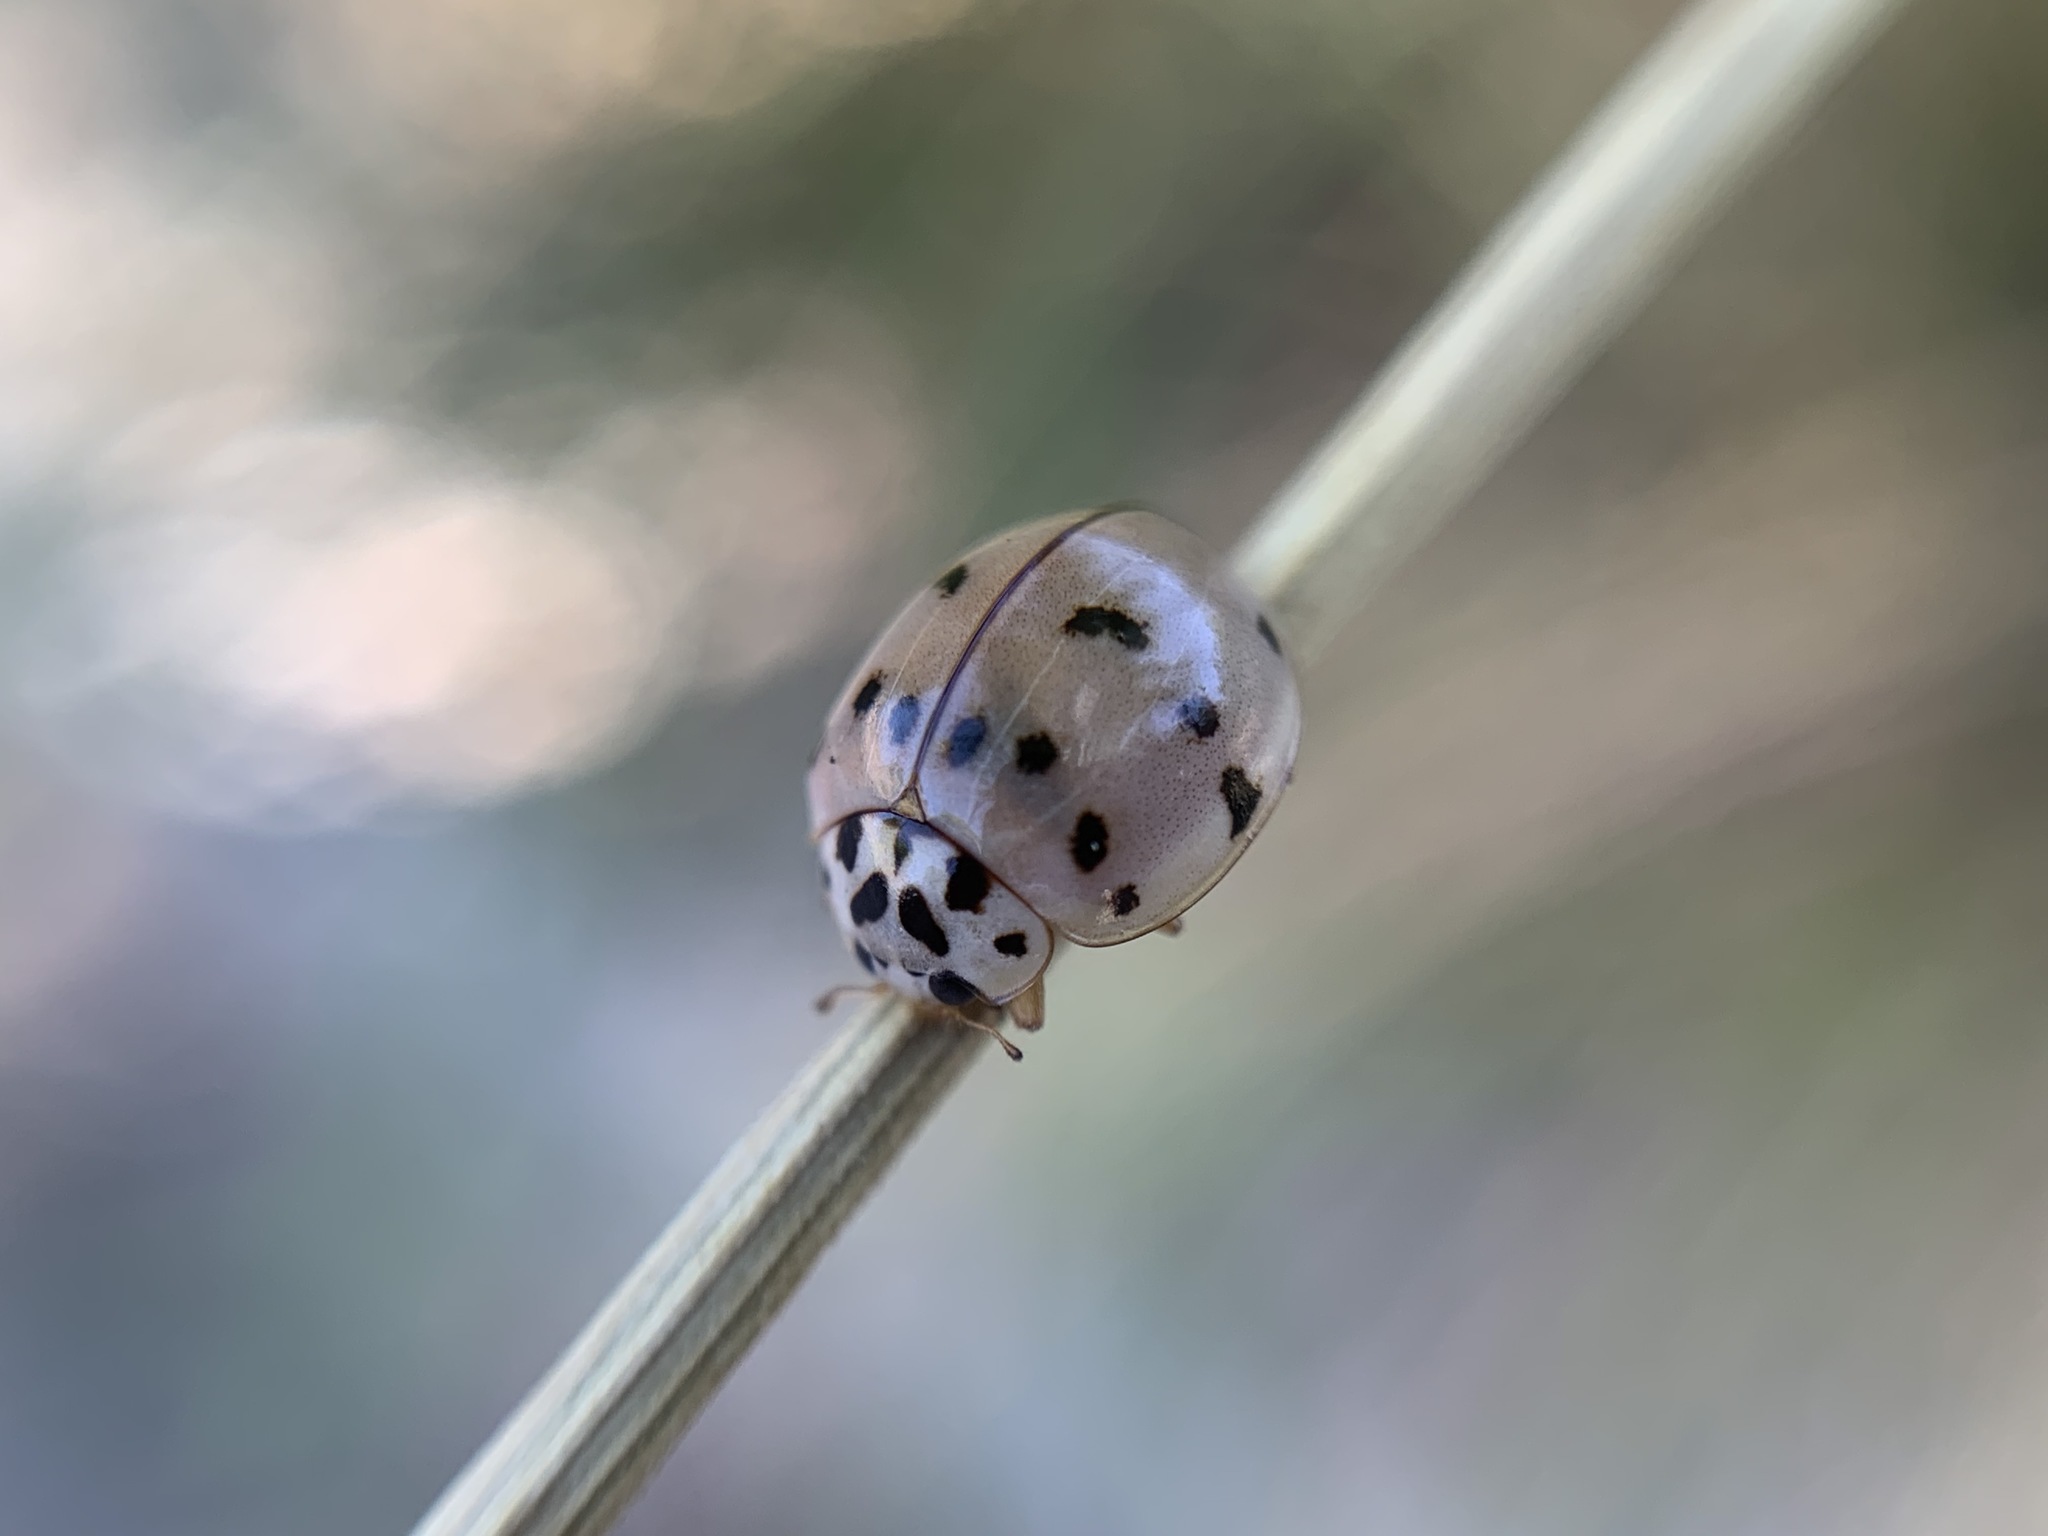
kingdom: Animalia
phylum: Arthropoda
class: Insecta
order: Coleoptera
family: Coccinellidae
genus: Olla
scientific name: Olla v-nigrum
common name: Ashy gray lady beetle
